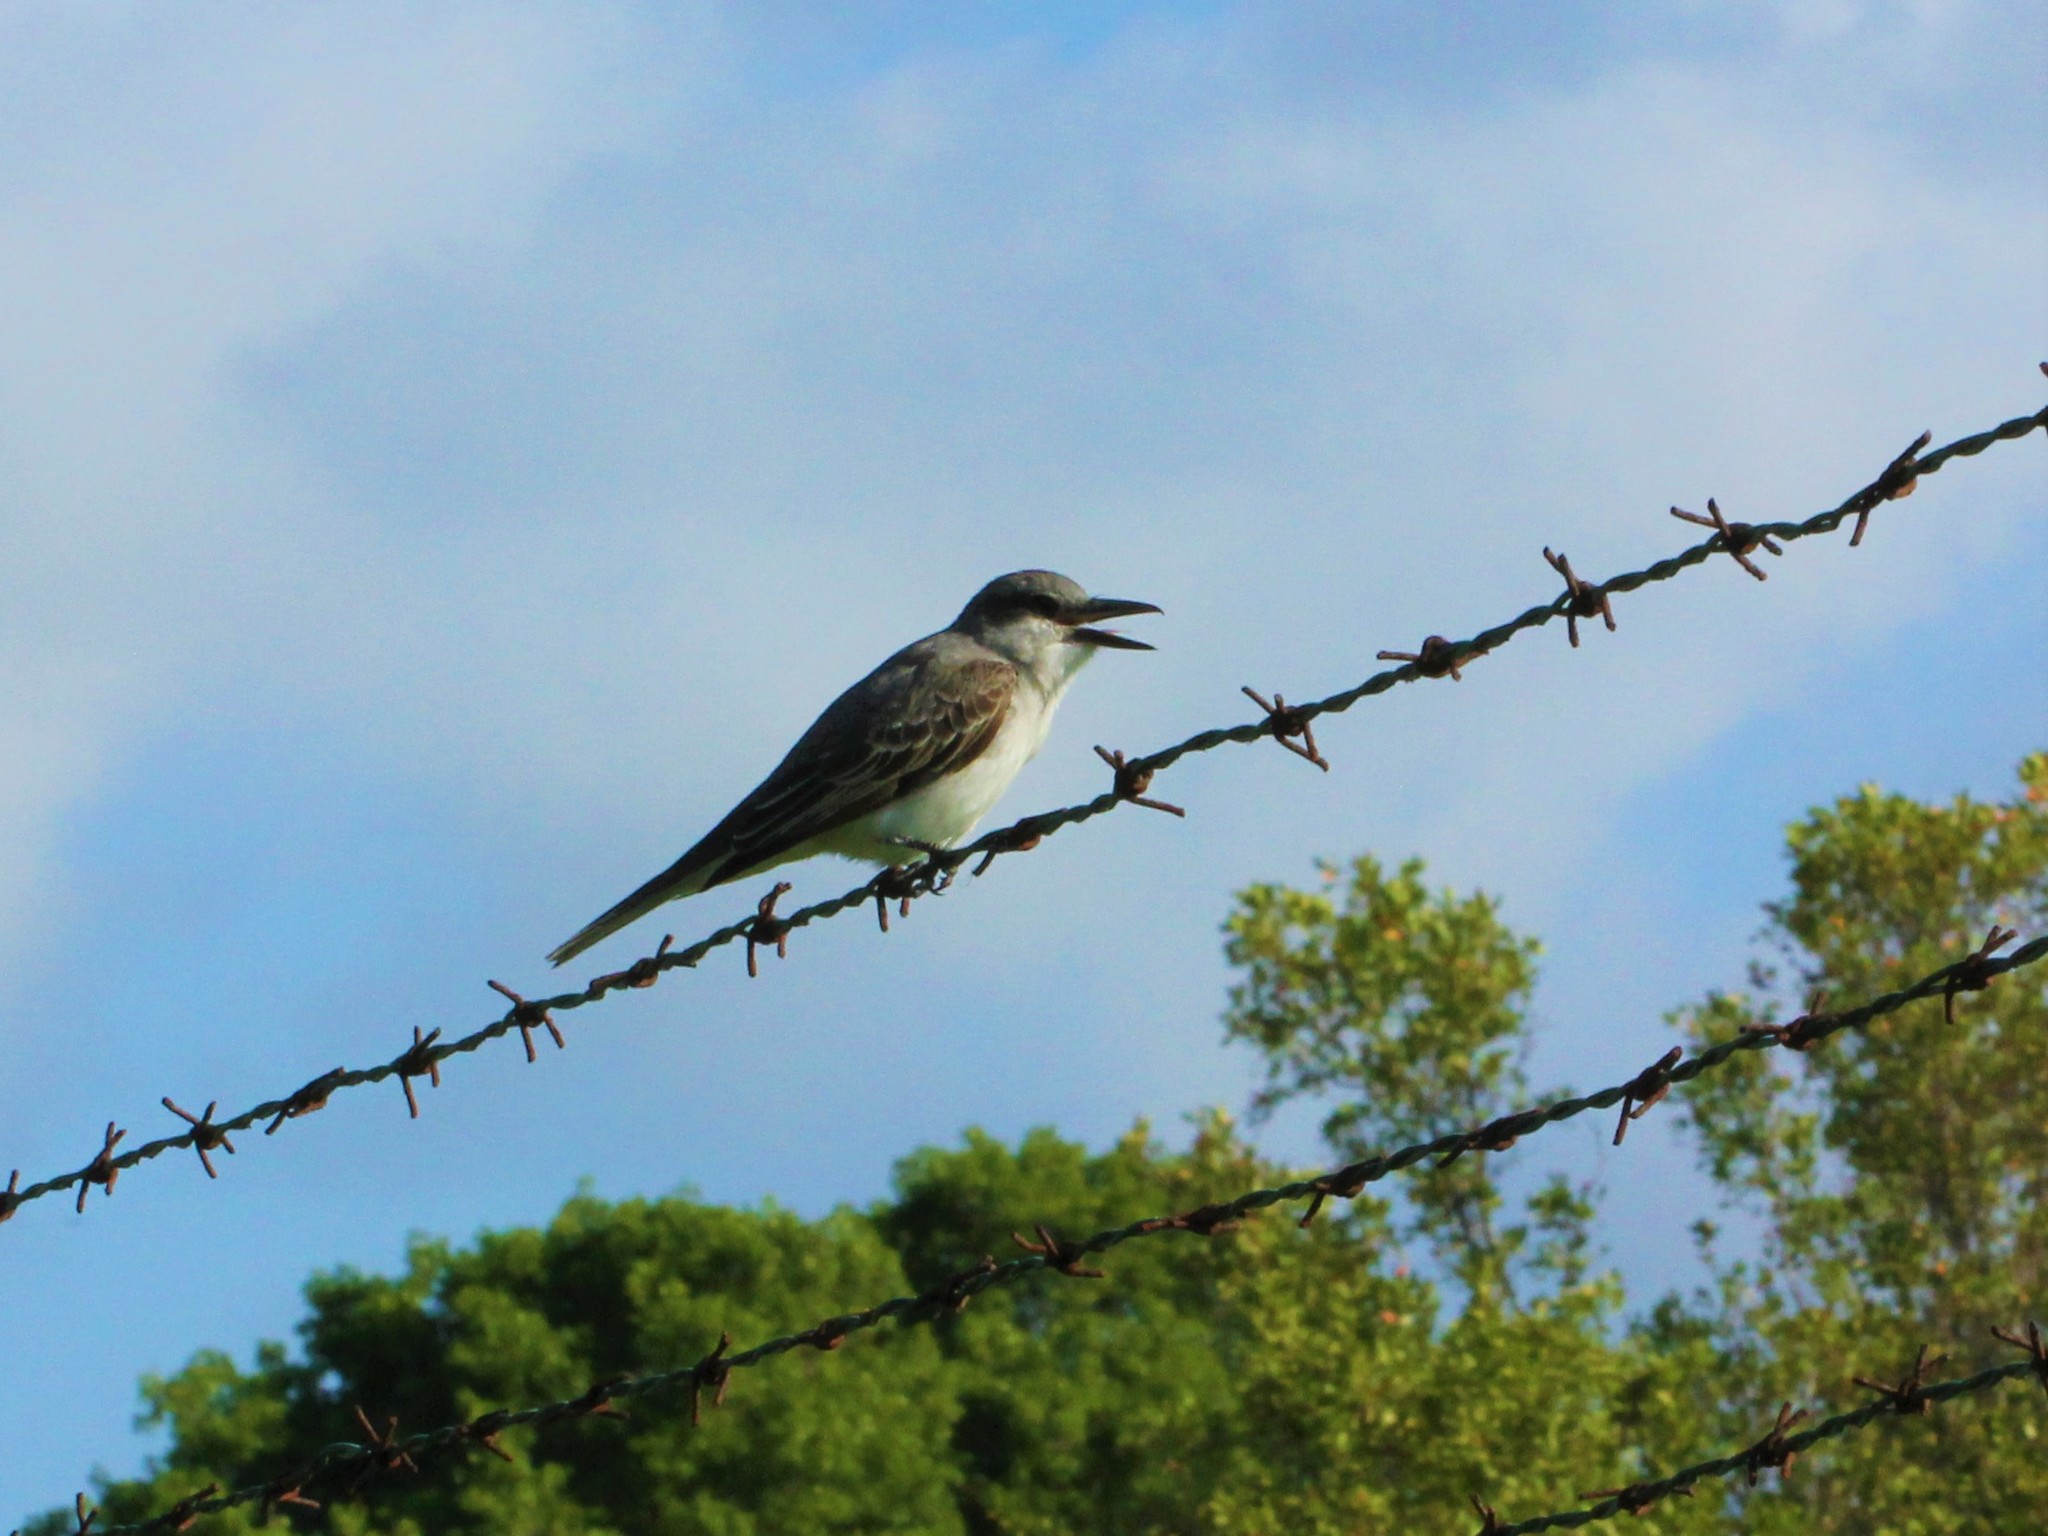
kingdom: Animalia
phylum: Chordata
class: Aves
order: Passeriformes
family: Tyrannidae
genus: Tyrannus
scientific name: Tyrannus dominicensis
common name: Gray kingbird
